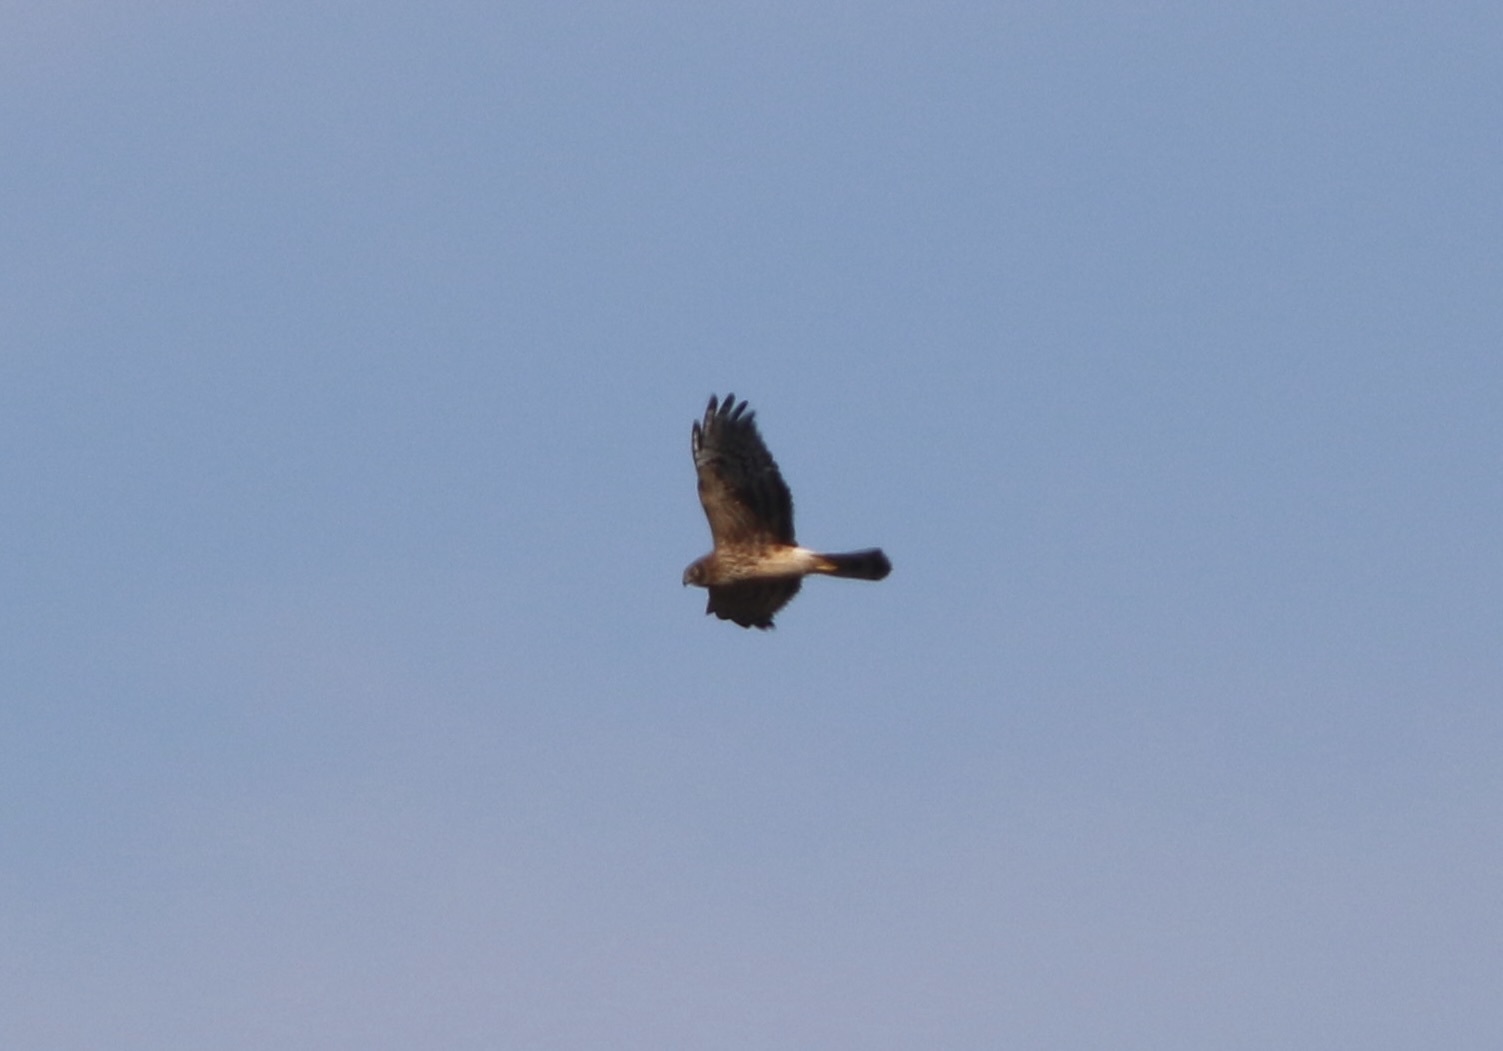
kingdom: Animalia
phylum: Chordata
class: Aves
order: Accipitriformes
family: Accipitridae
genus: Circus
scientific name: Circus cyaneus
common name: Hen harrier
